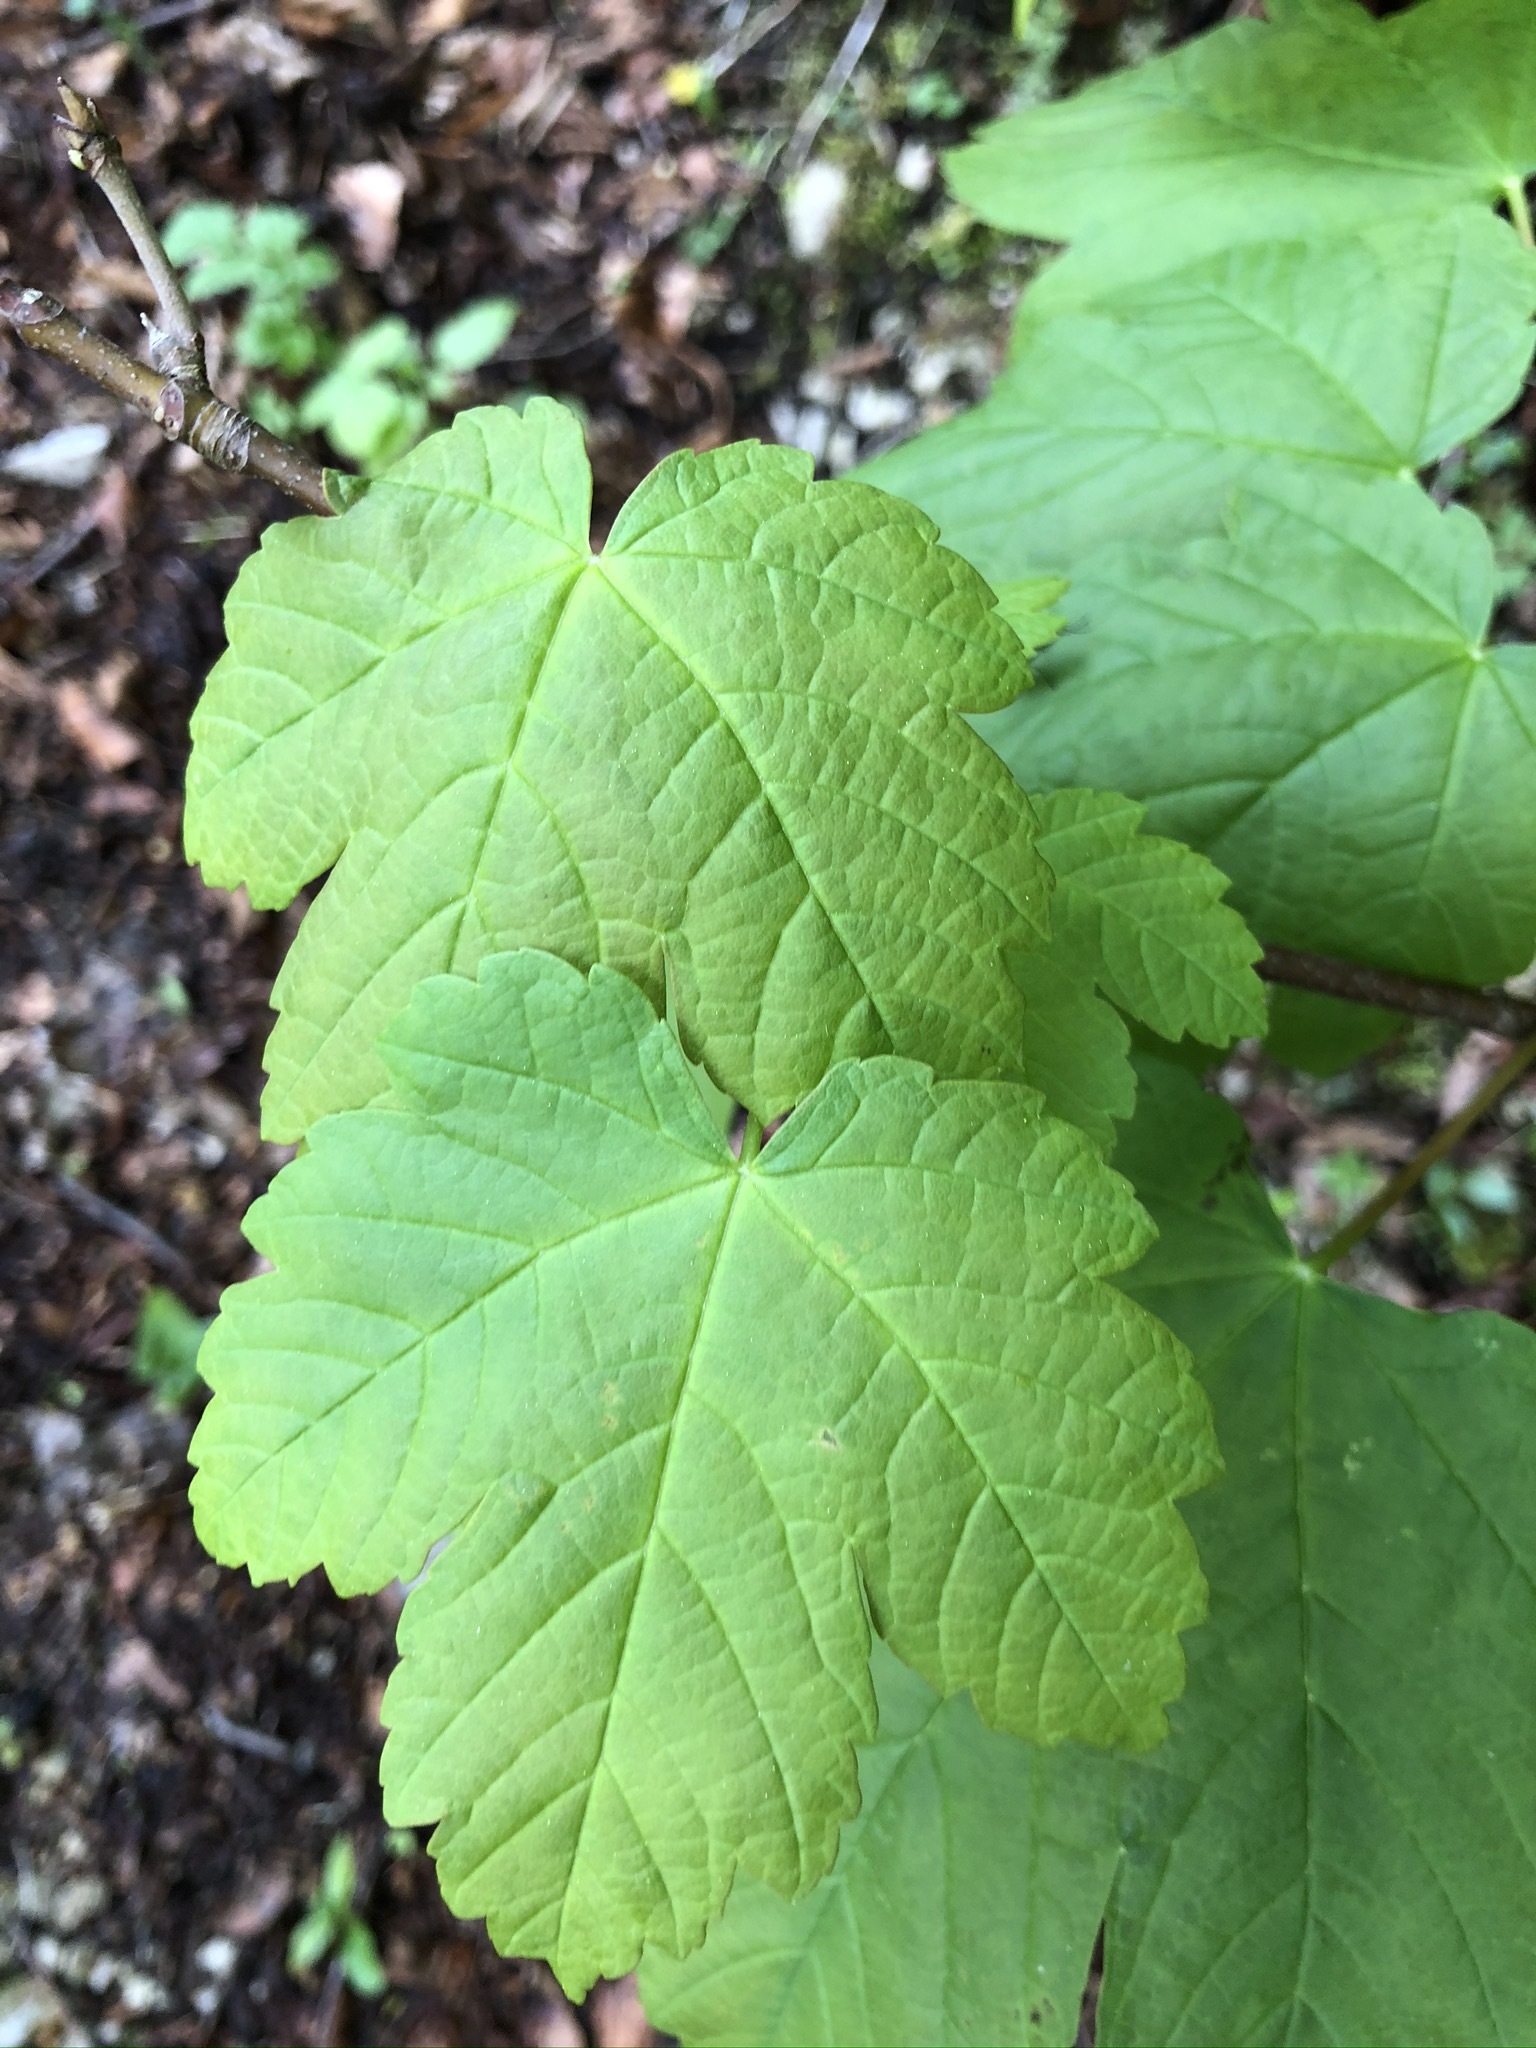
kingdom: Plantae
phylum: Tracheophyta
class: Magnoliopsida
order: Sapindales
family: Sapindaceae
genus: Acer
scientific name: Acer pseudoplatanus
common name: Sycamore
